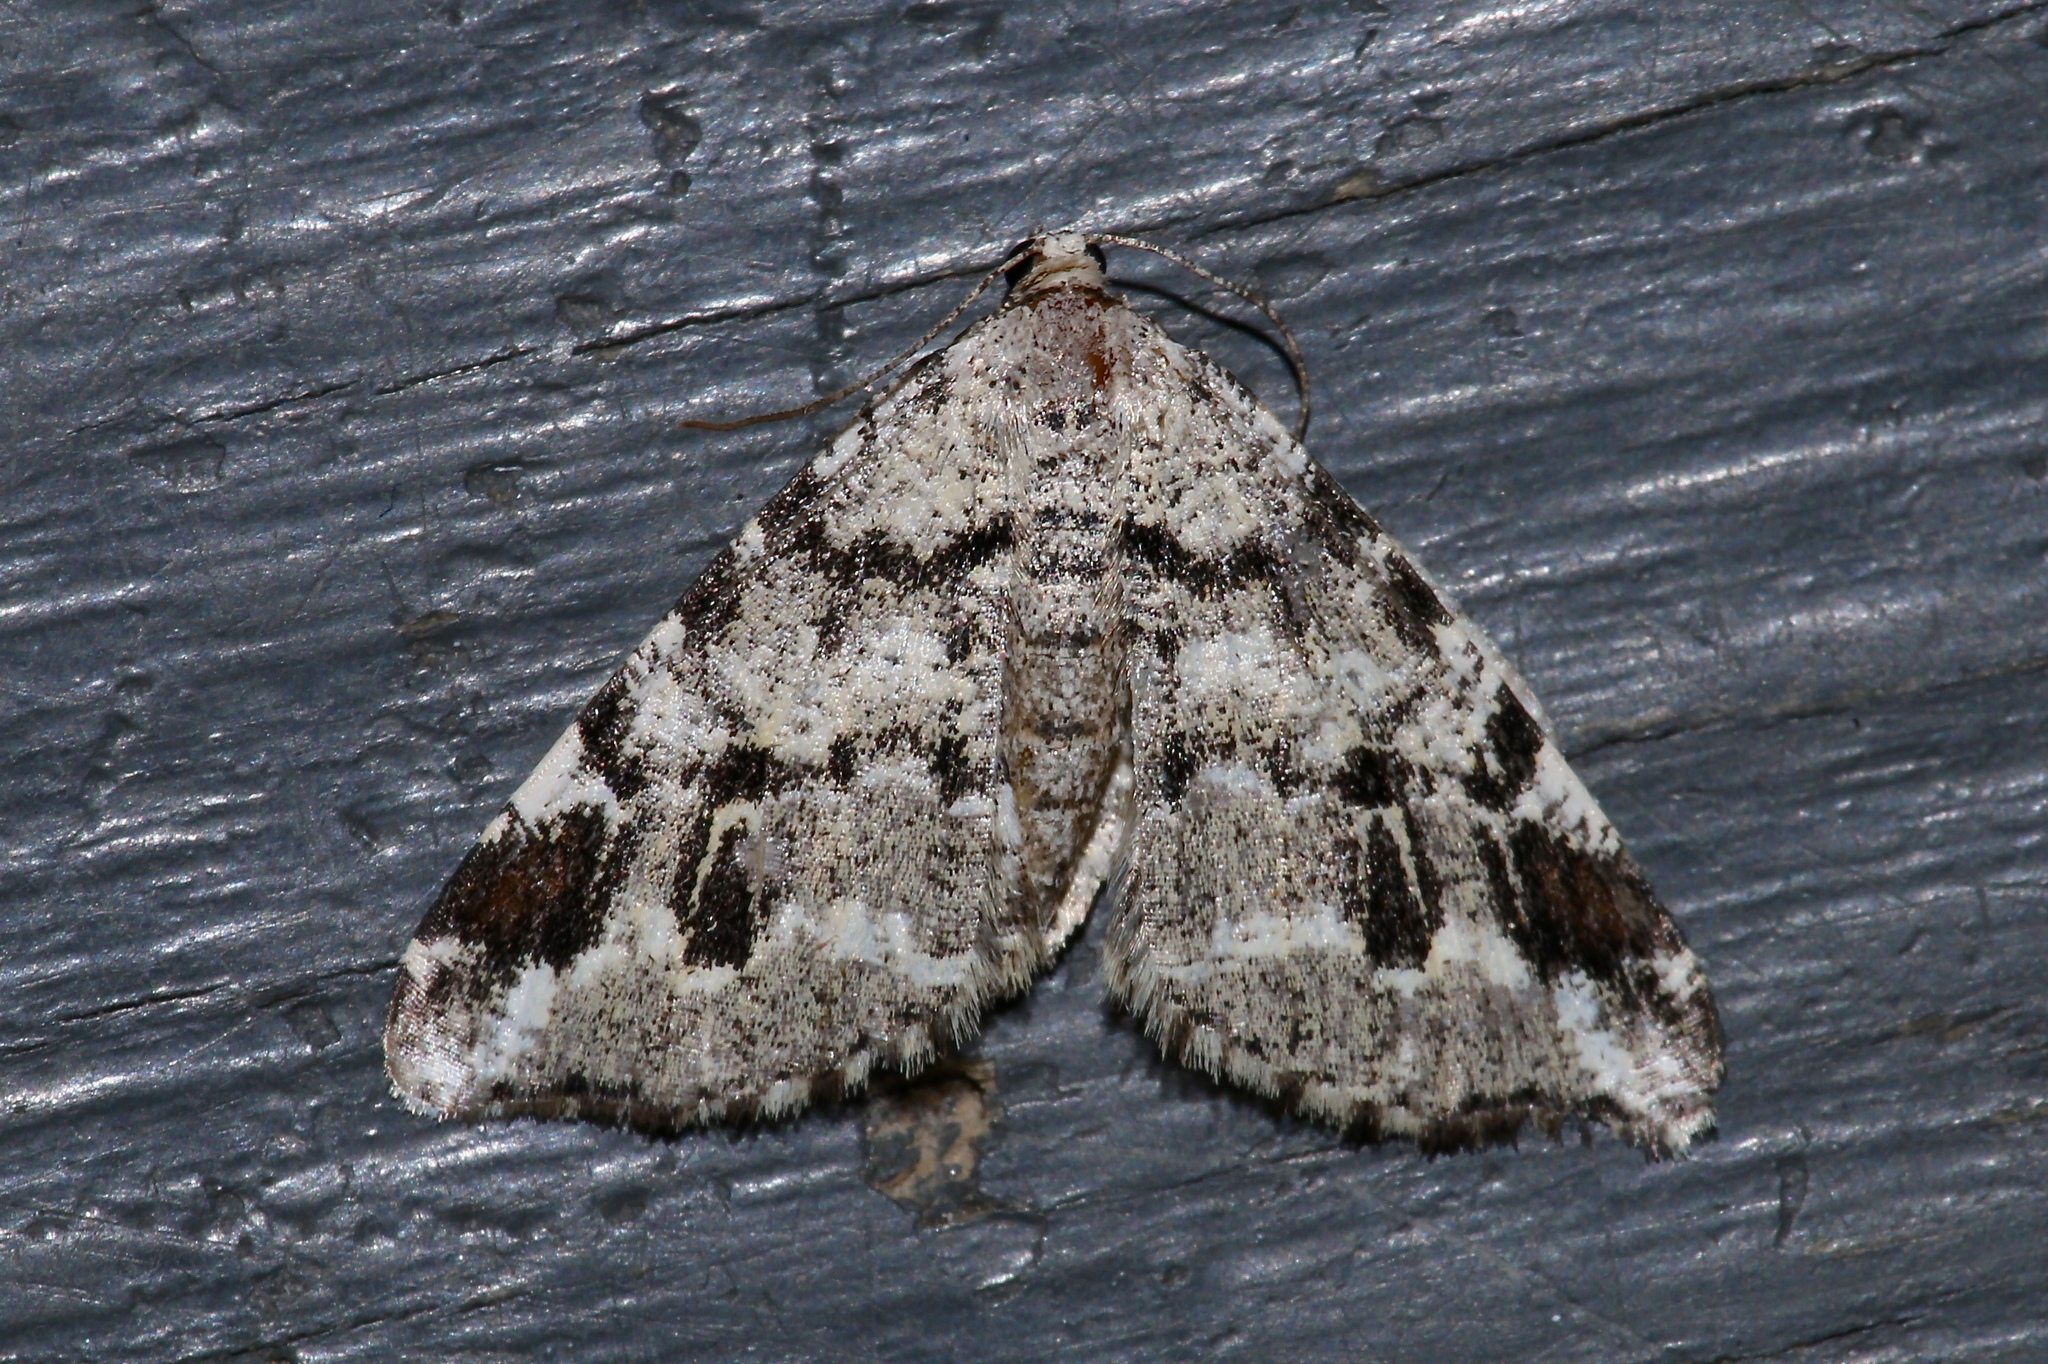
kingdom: Animalia
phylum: Arthropoda
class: Insecta
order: Lepidoptera
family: Geometridae
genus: Macaria
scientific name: Macaria oweni
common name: Owen's angle
